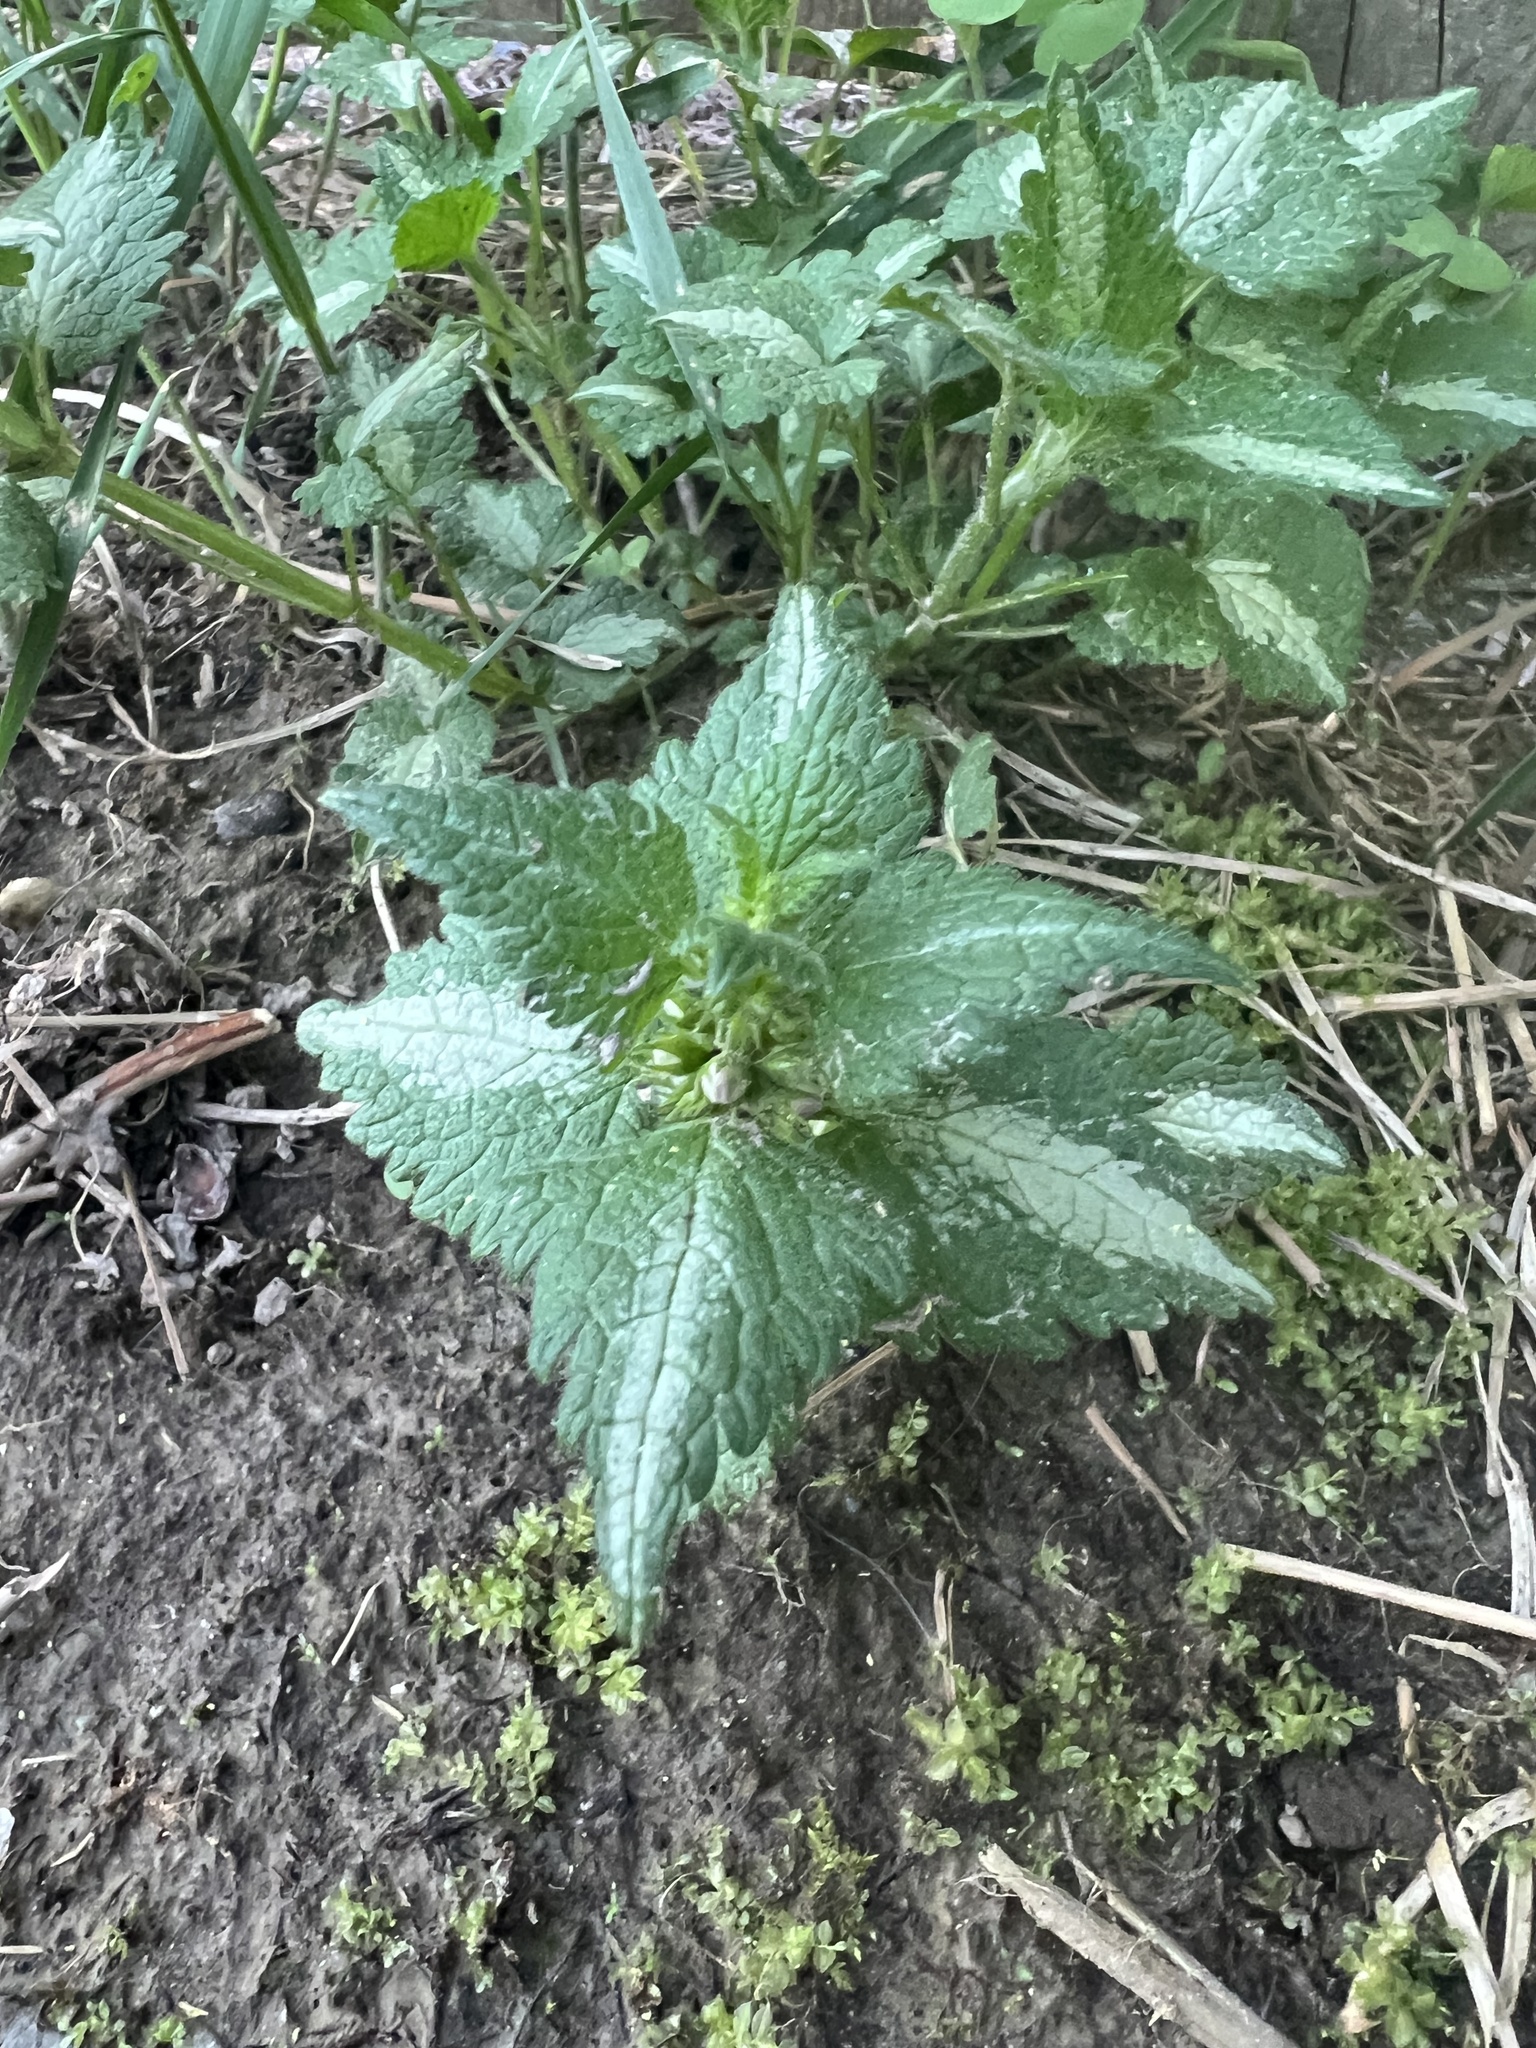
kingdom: Plantae
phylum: Tracheophyta
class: Magnoliopsida
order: Lamiales
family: Lamiaceae
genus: Lamium
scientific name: Lamium maculatum
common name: Spotted dead-nettle
